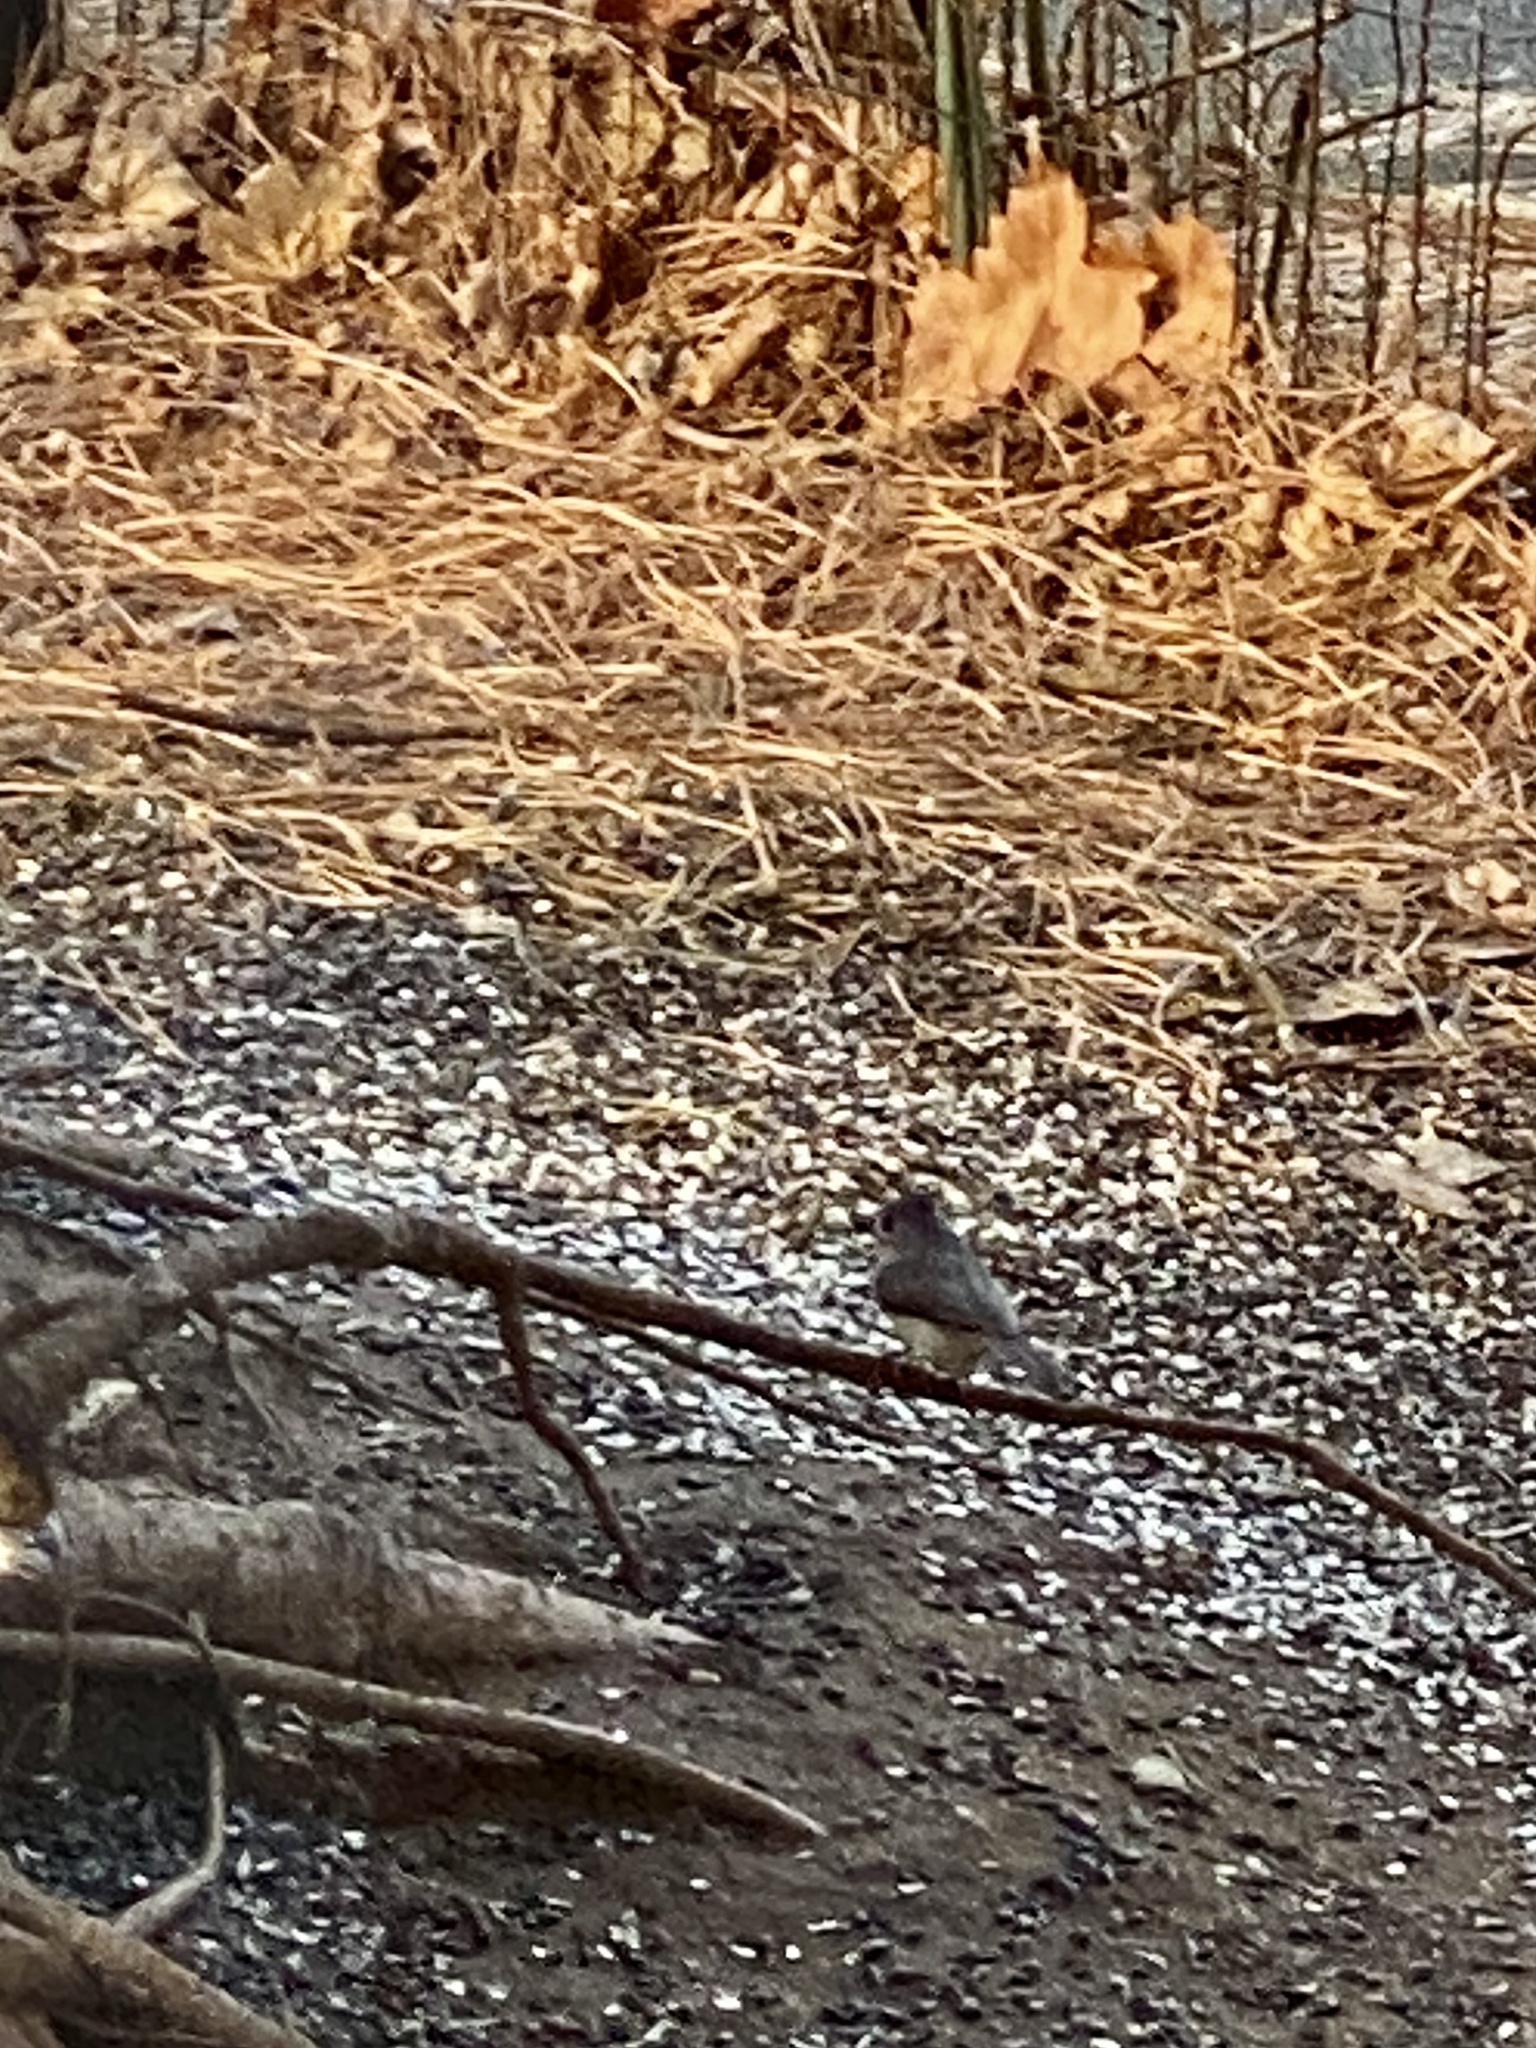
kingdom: Animalia
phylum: Chordata
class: Aves
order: Passeriformes
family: Paridae
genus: Baeolophus
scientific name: Baeolophus bicolor
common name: Tufted titmouse
